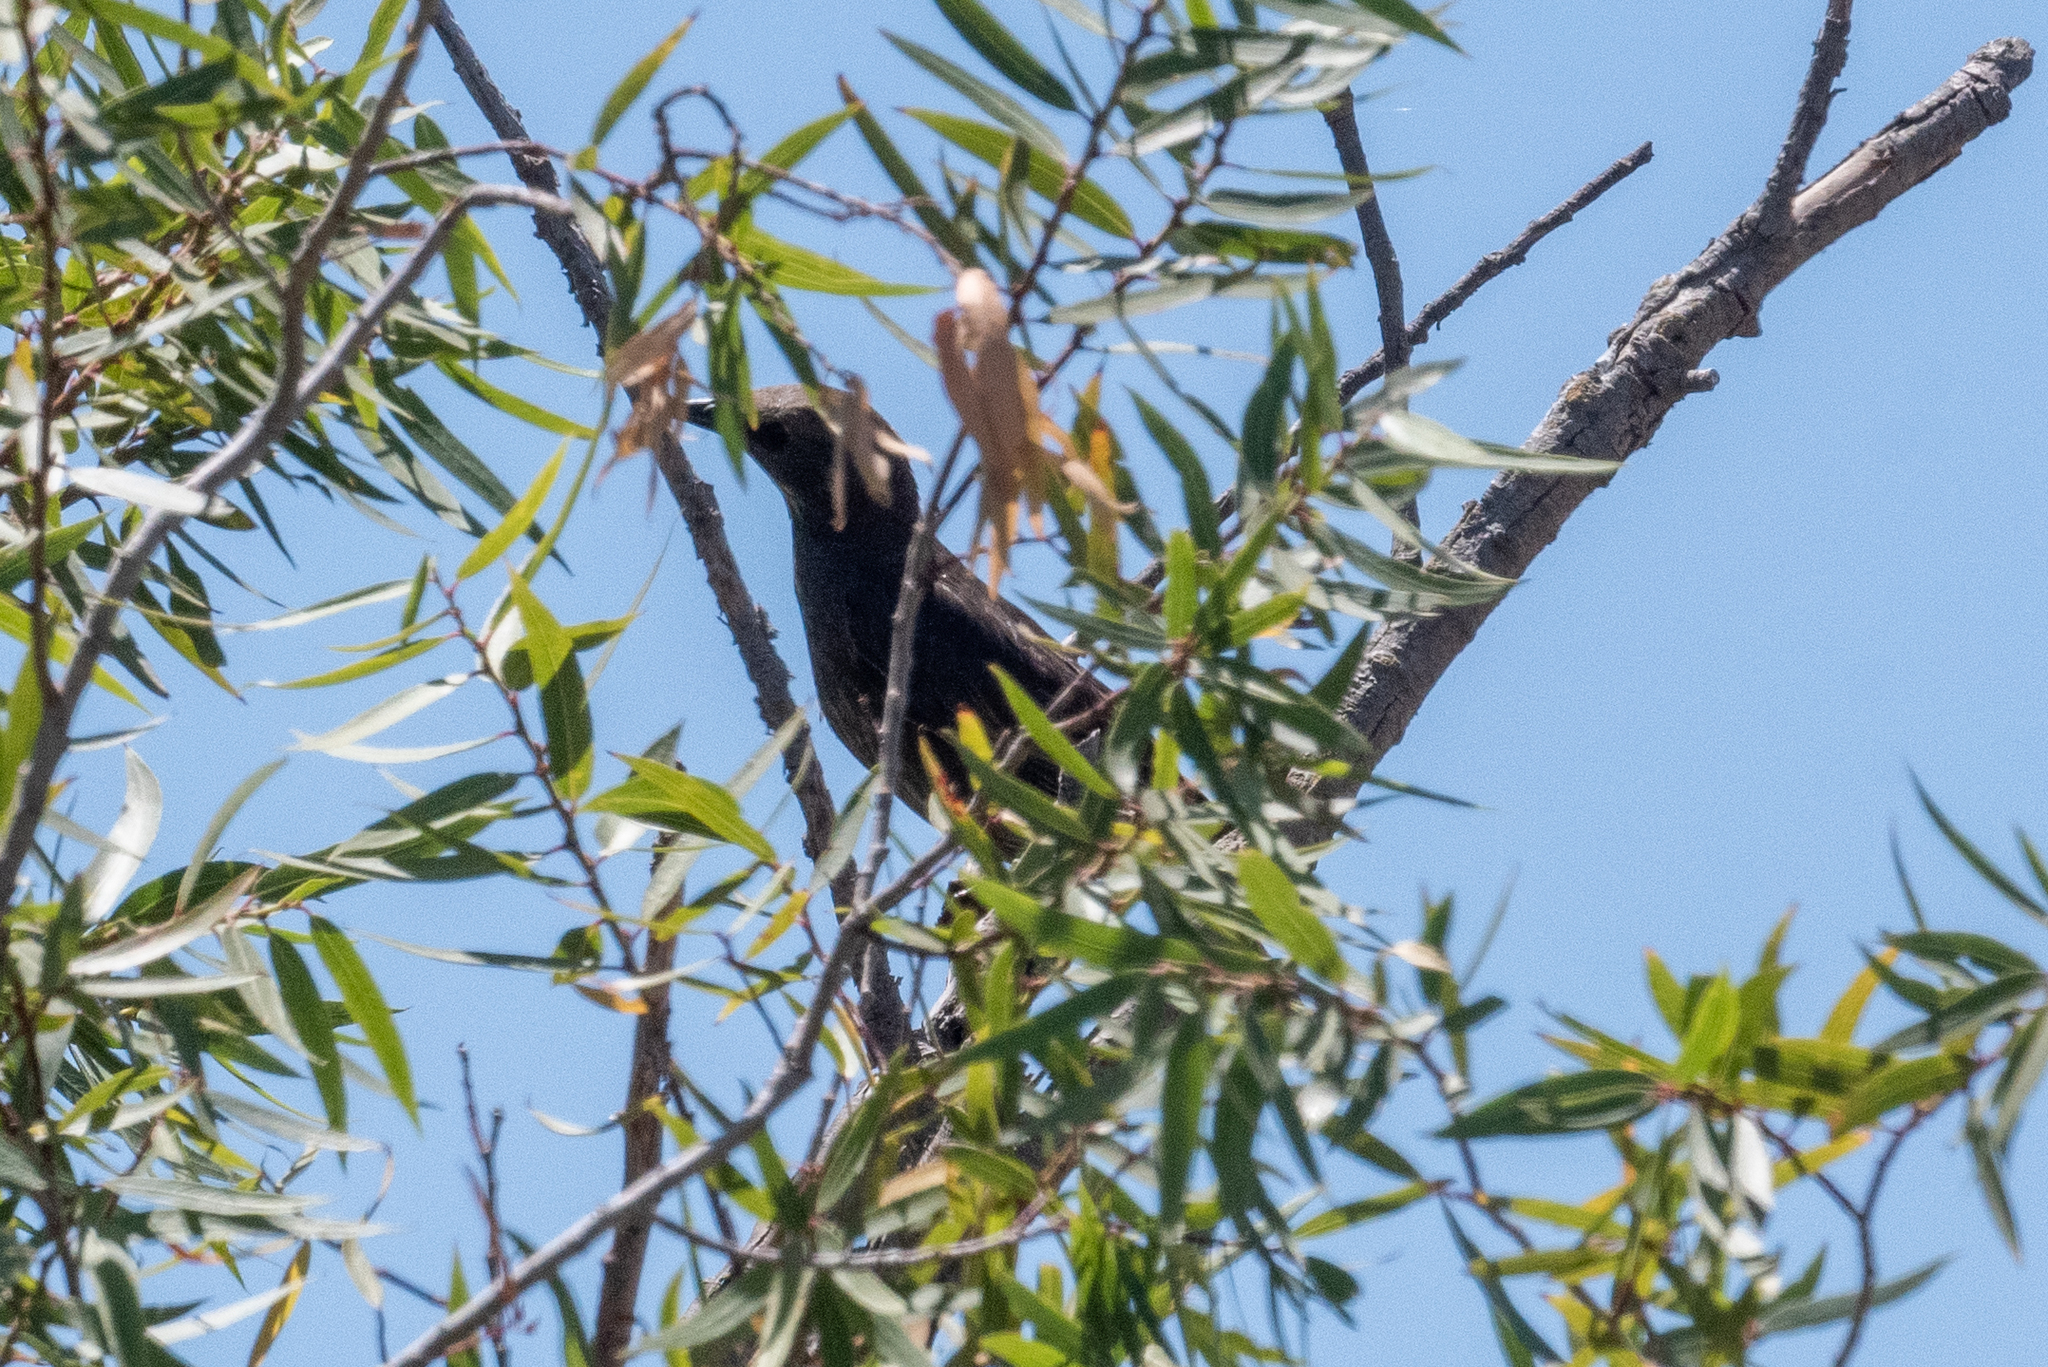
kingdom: Animalia
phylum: Chordata
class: Aves
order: Passeriformes
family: Icteridae
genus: Quiscalus
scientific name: Quiscalus mexicanus
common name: Great-tailed grackle
